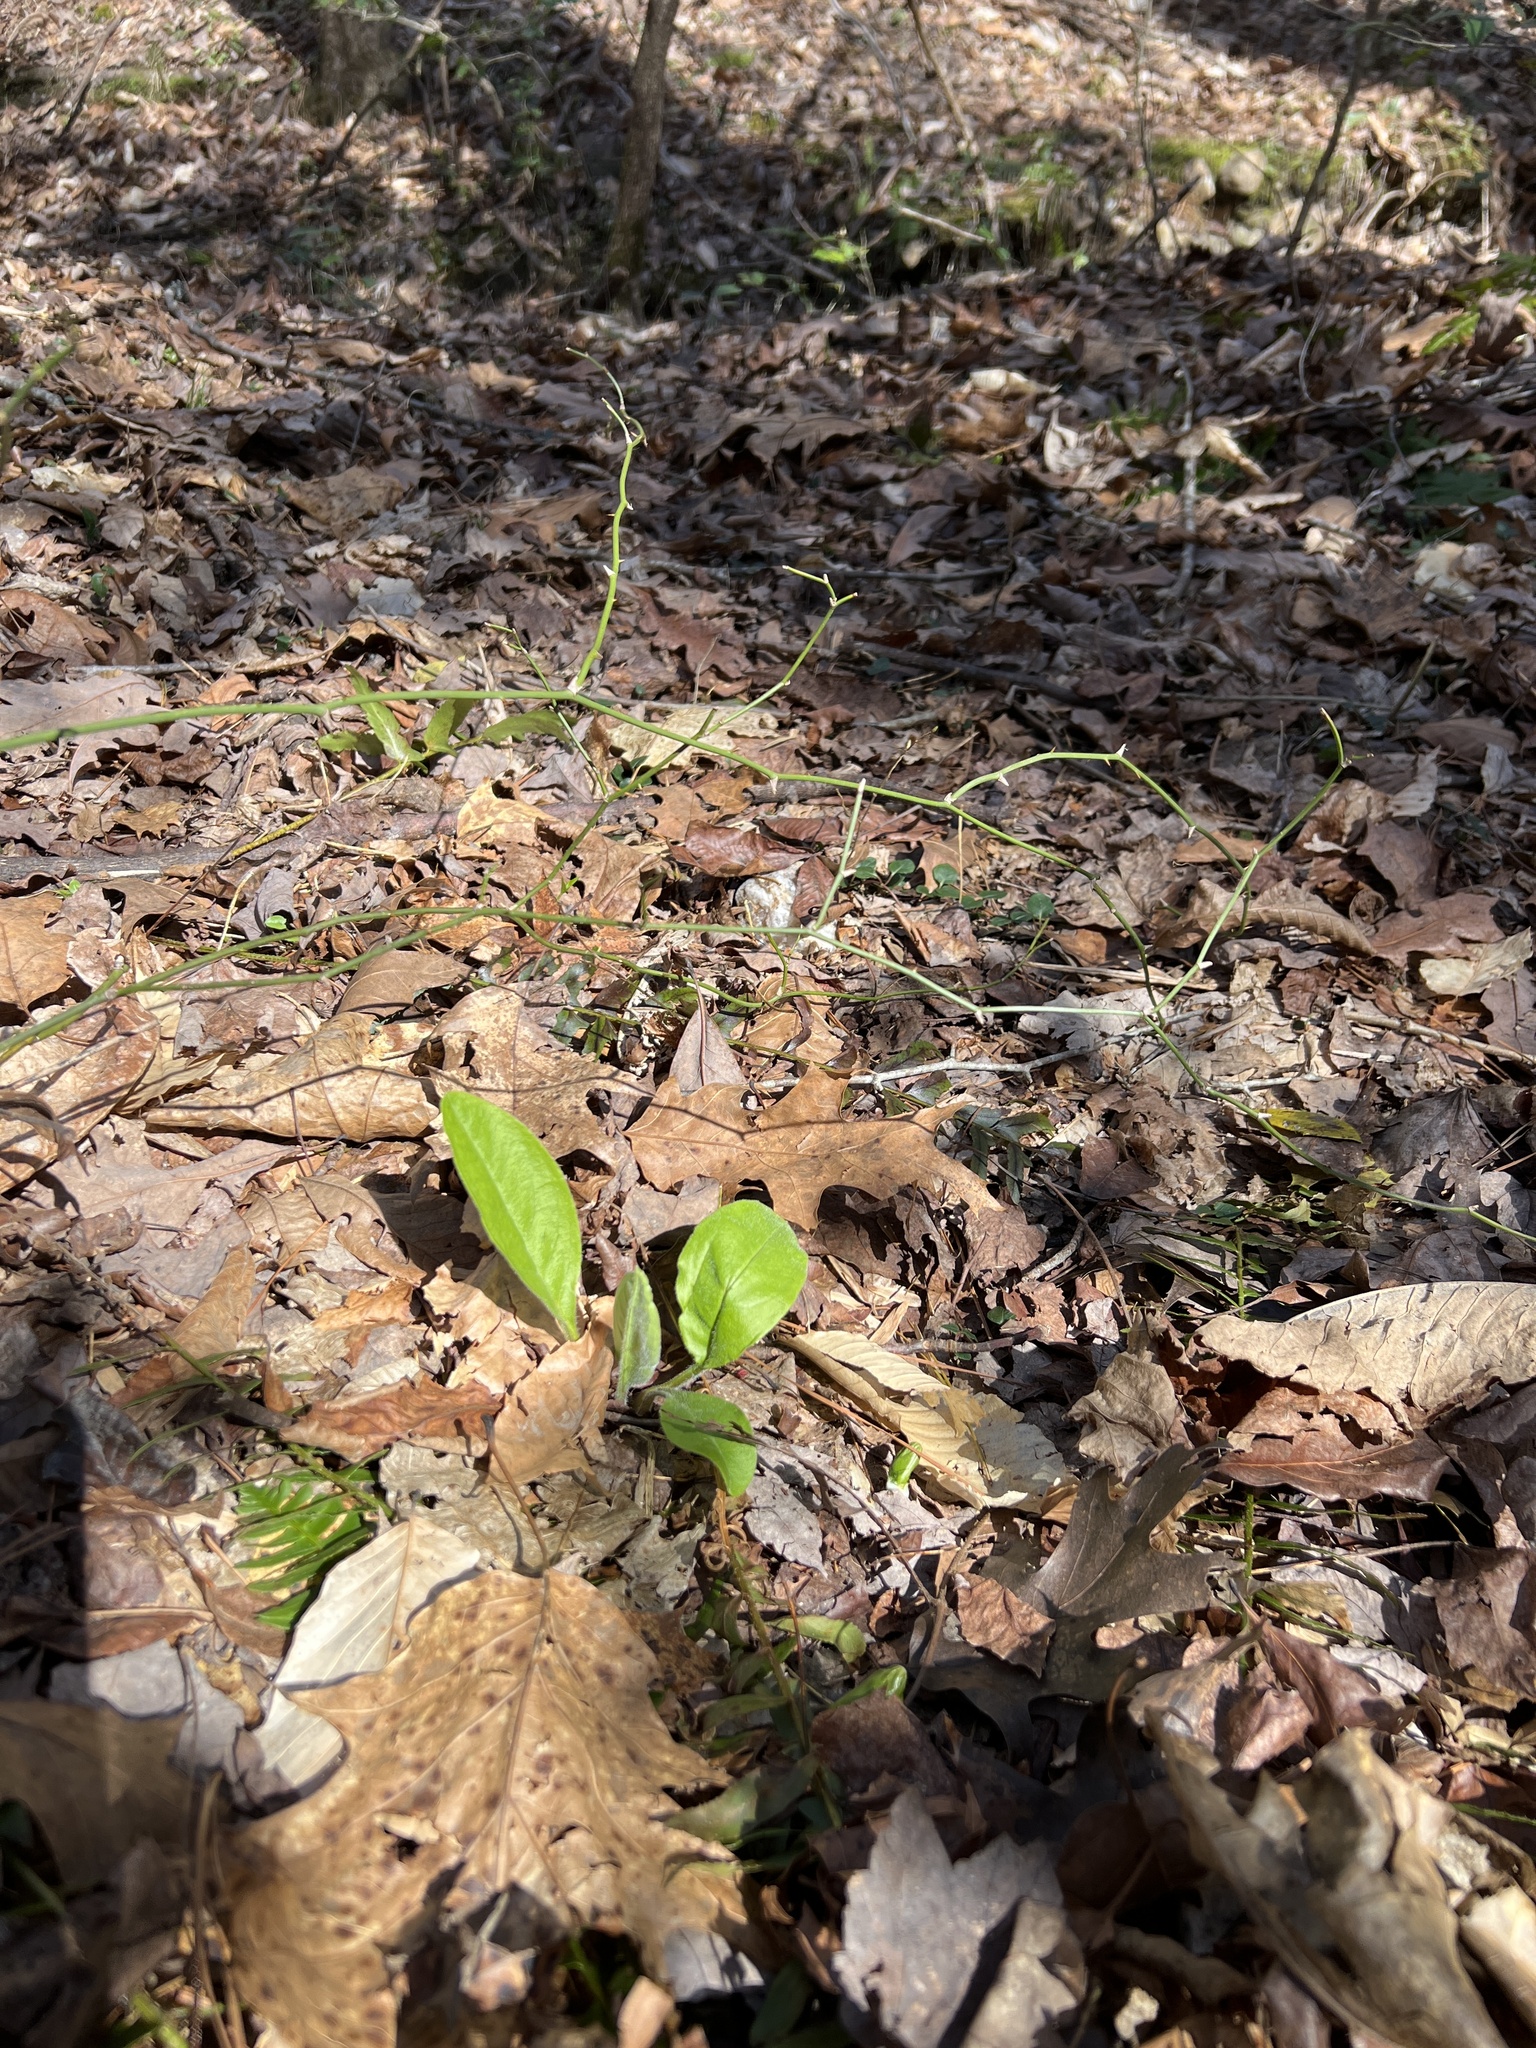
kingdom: Plantae
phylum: Tracheophyta
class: Magnoliopsida
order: Boraginales
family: Boraginaceae
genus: Andersonglossum
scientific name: Andersonglossum virginianum
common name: Wild comfrey
